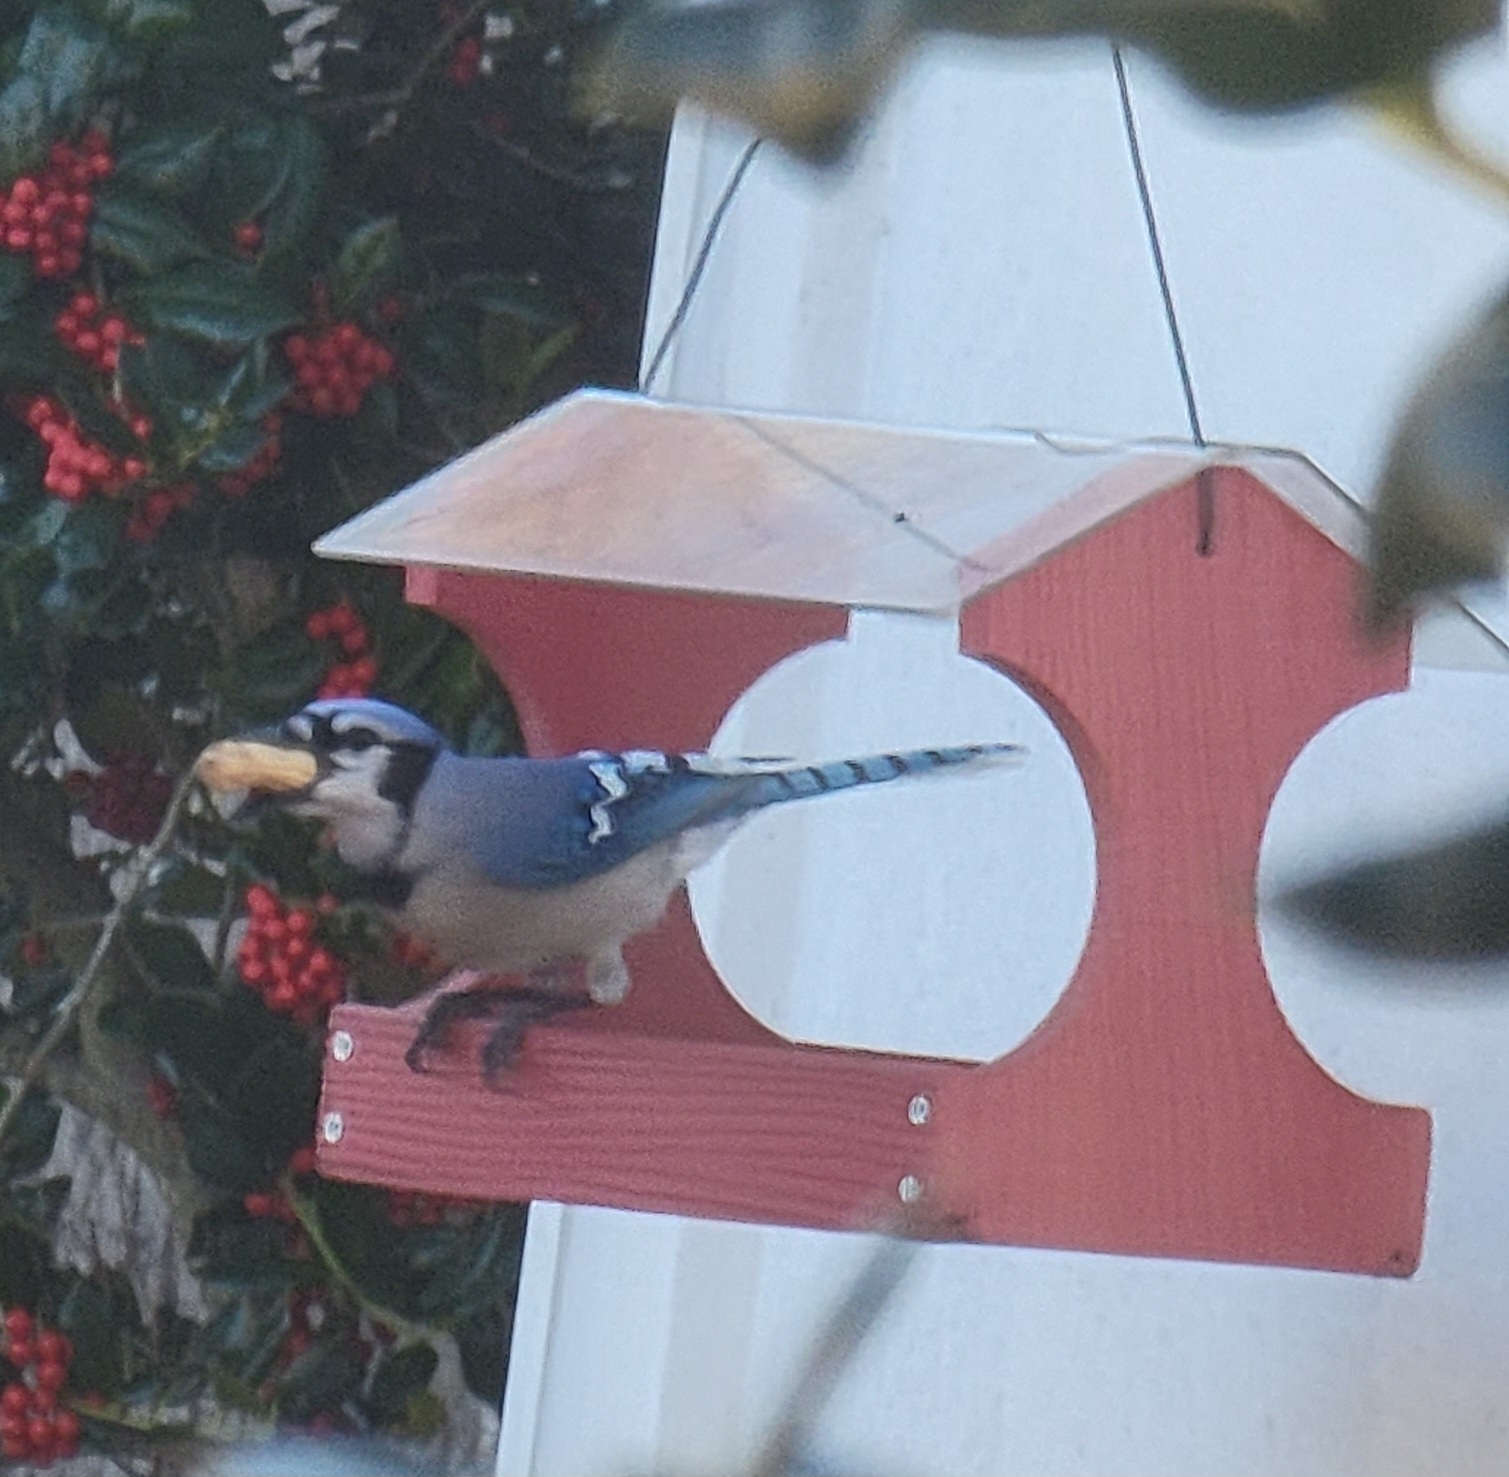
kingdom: Animalia
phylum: Chordata
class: Aves
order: Passeriformes
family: Corvidae
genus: Cyanocitta
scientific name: Cyanocitta cristata
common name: Blue jay
